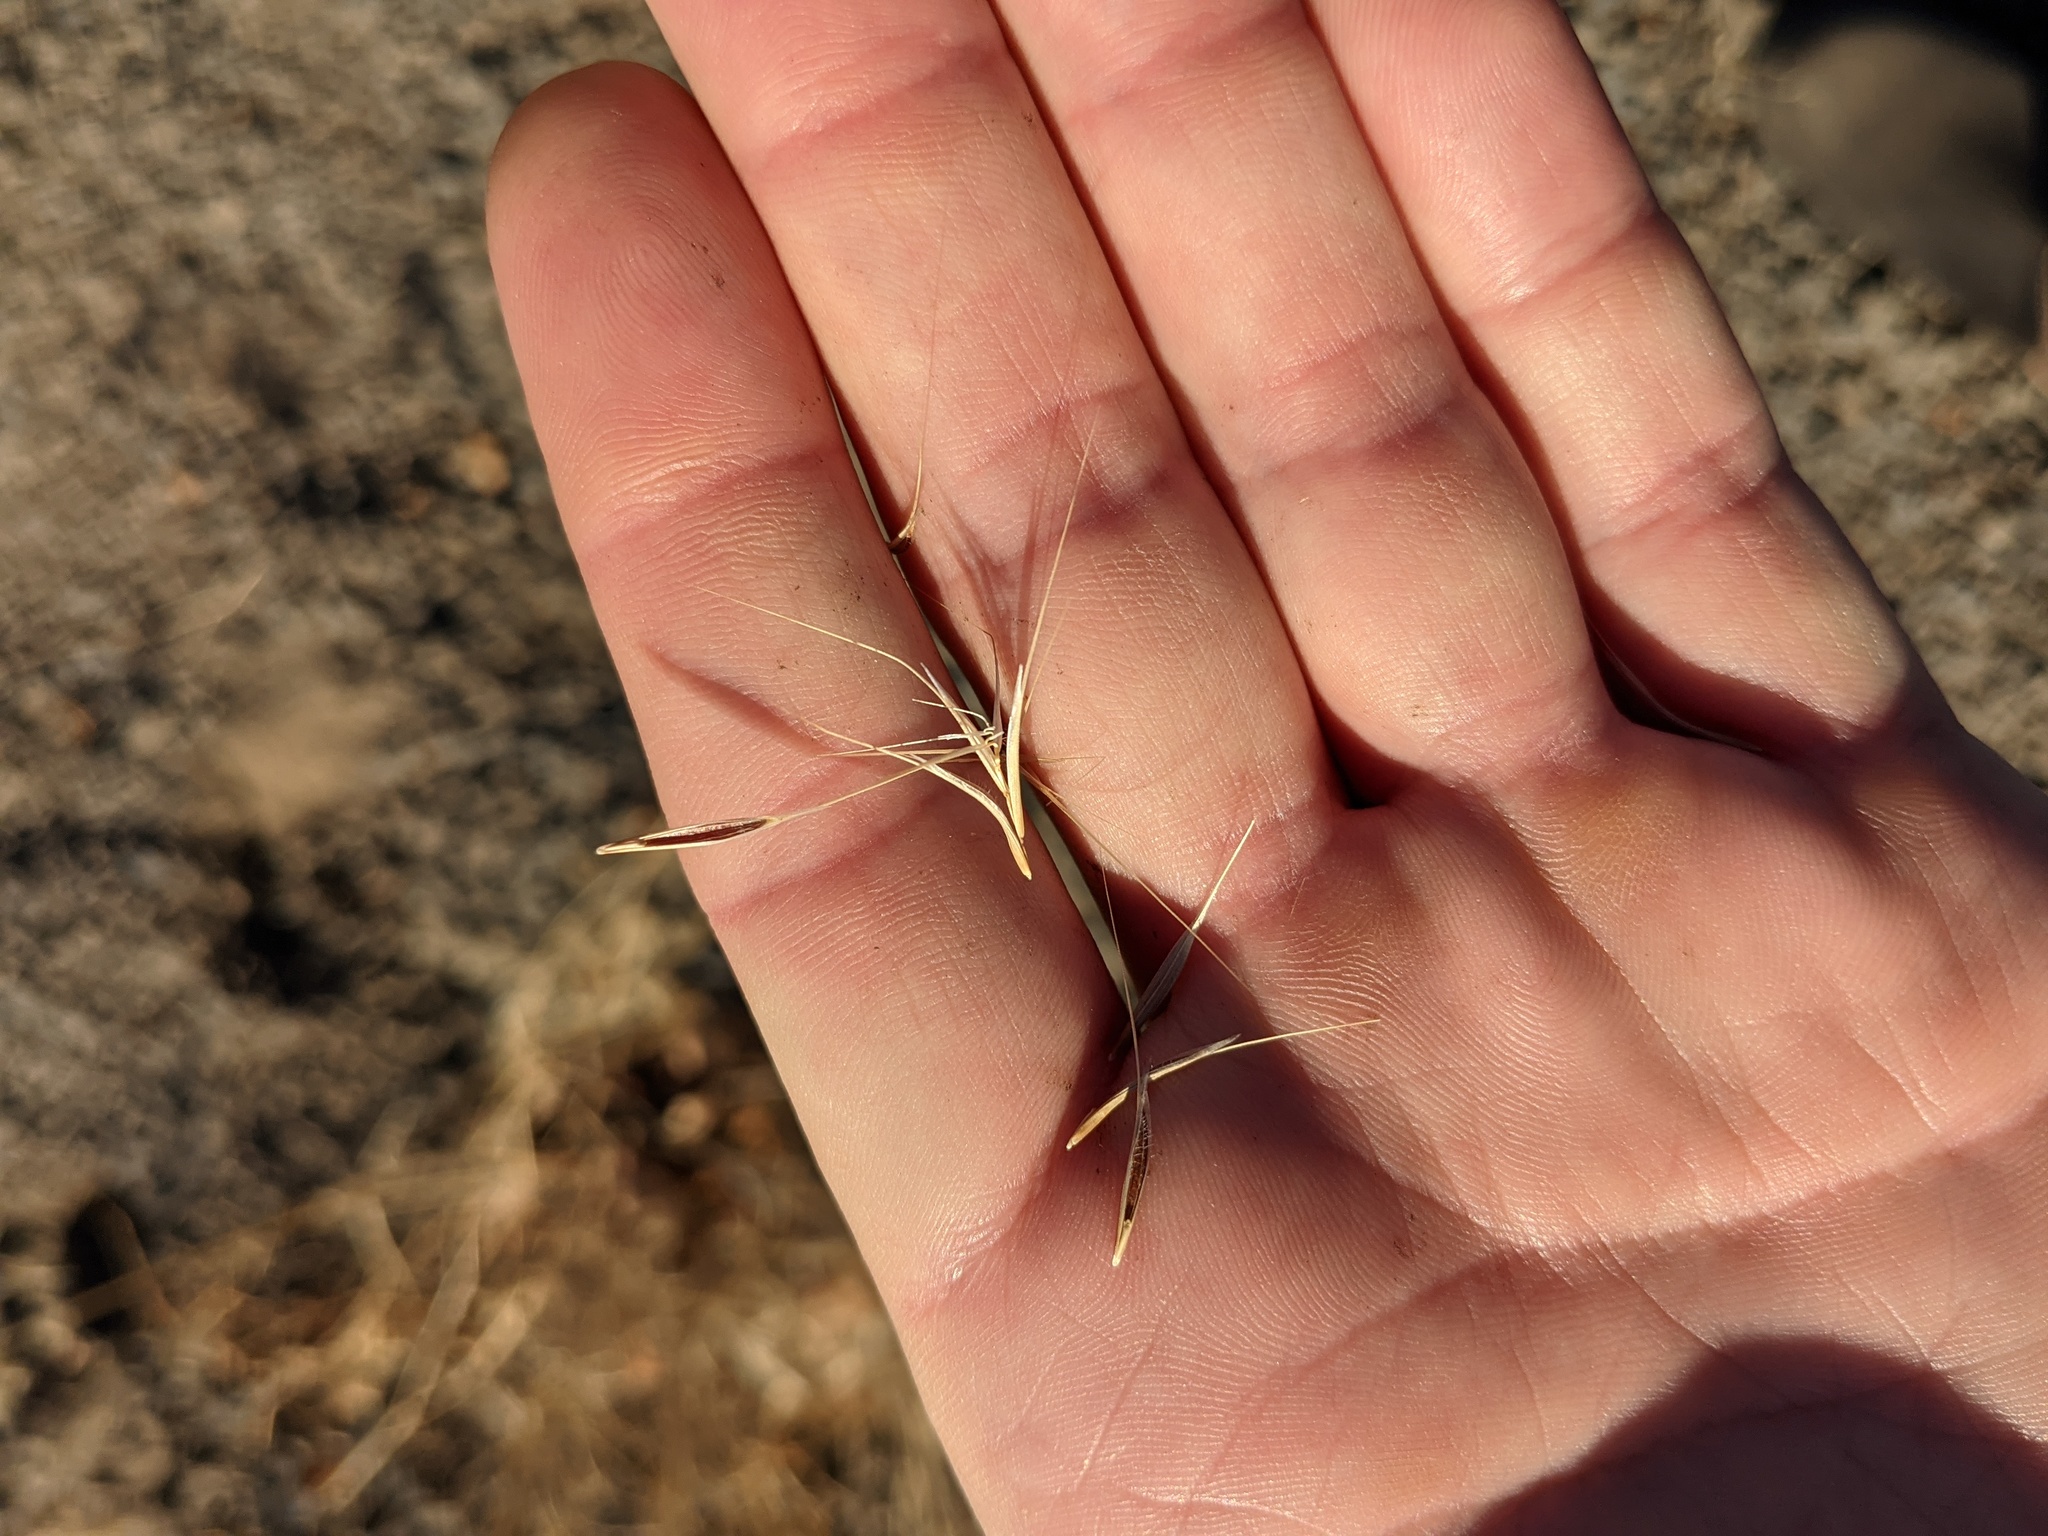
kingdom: Plantae
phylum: Tracheophyta
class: Liliopsida
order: Poales
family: Poaceae
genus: Bromus
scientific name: Bromus tectorum
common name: Cheatgrass
